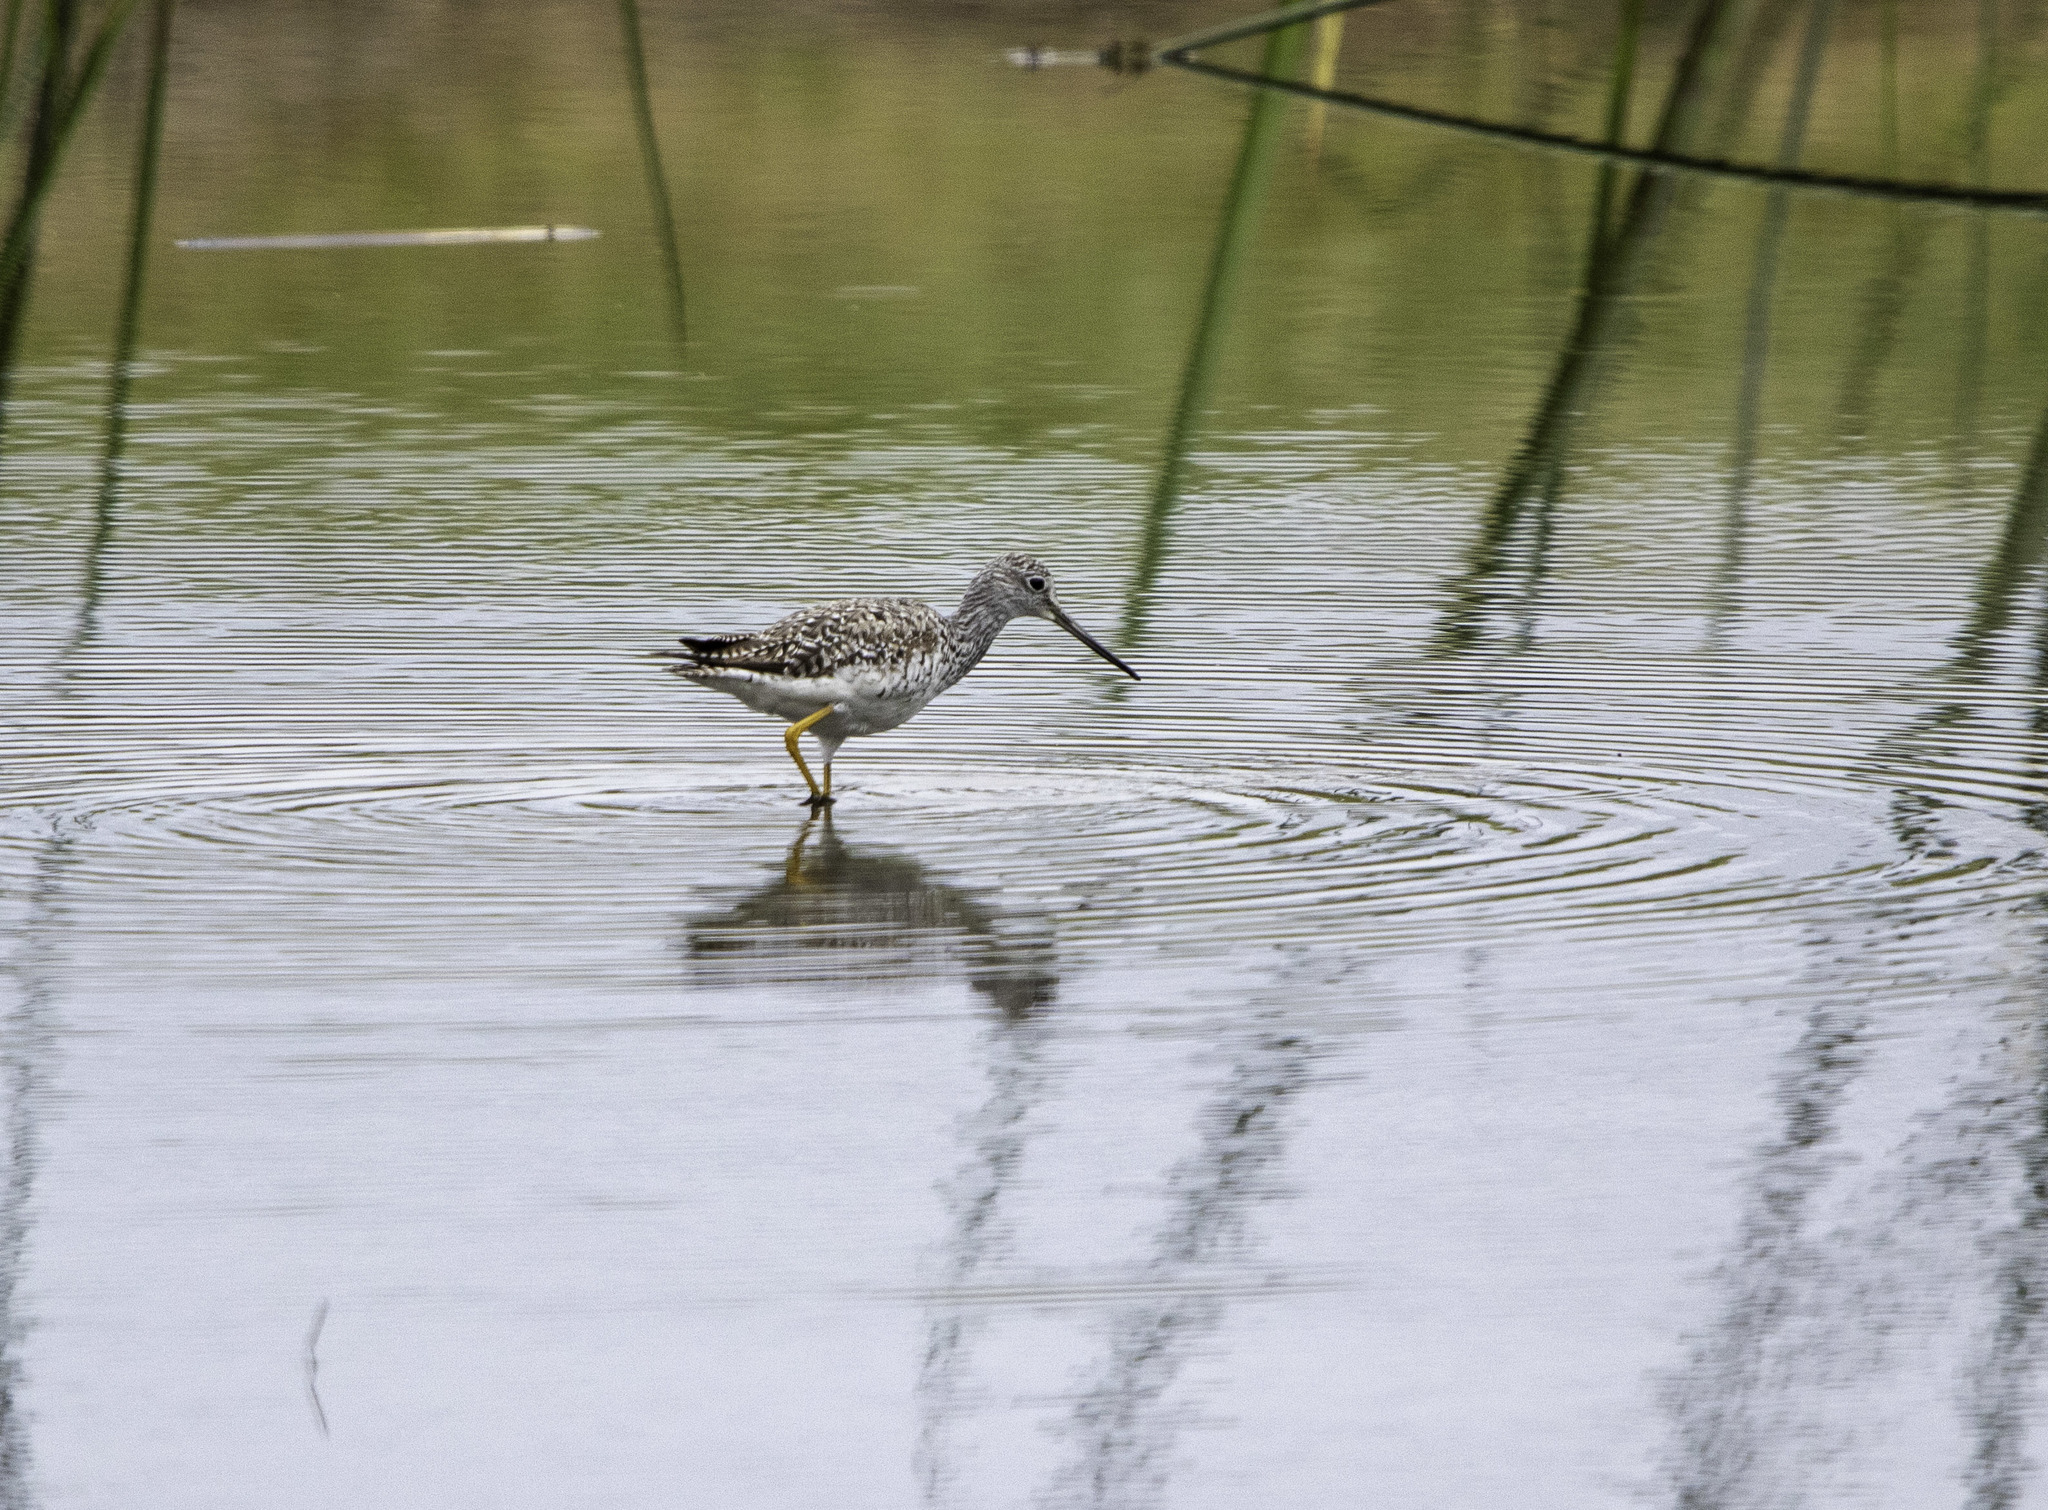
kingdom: Animalia
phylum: Chordata
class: Aves
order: Charadriiformes
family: Scolopacidae
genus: Tringa
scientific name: Tringa melanoleuca
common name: Greater yellowlegs
